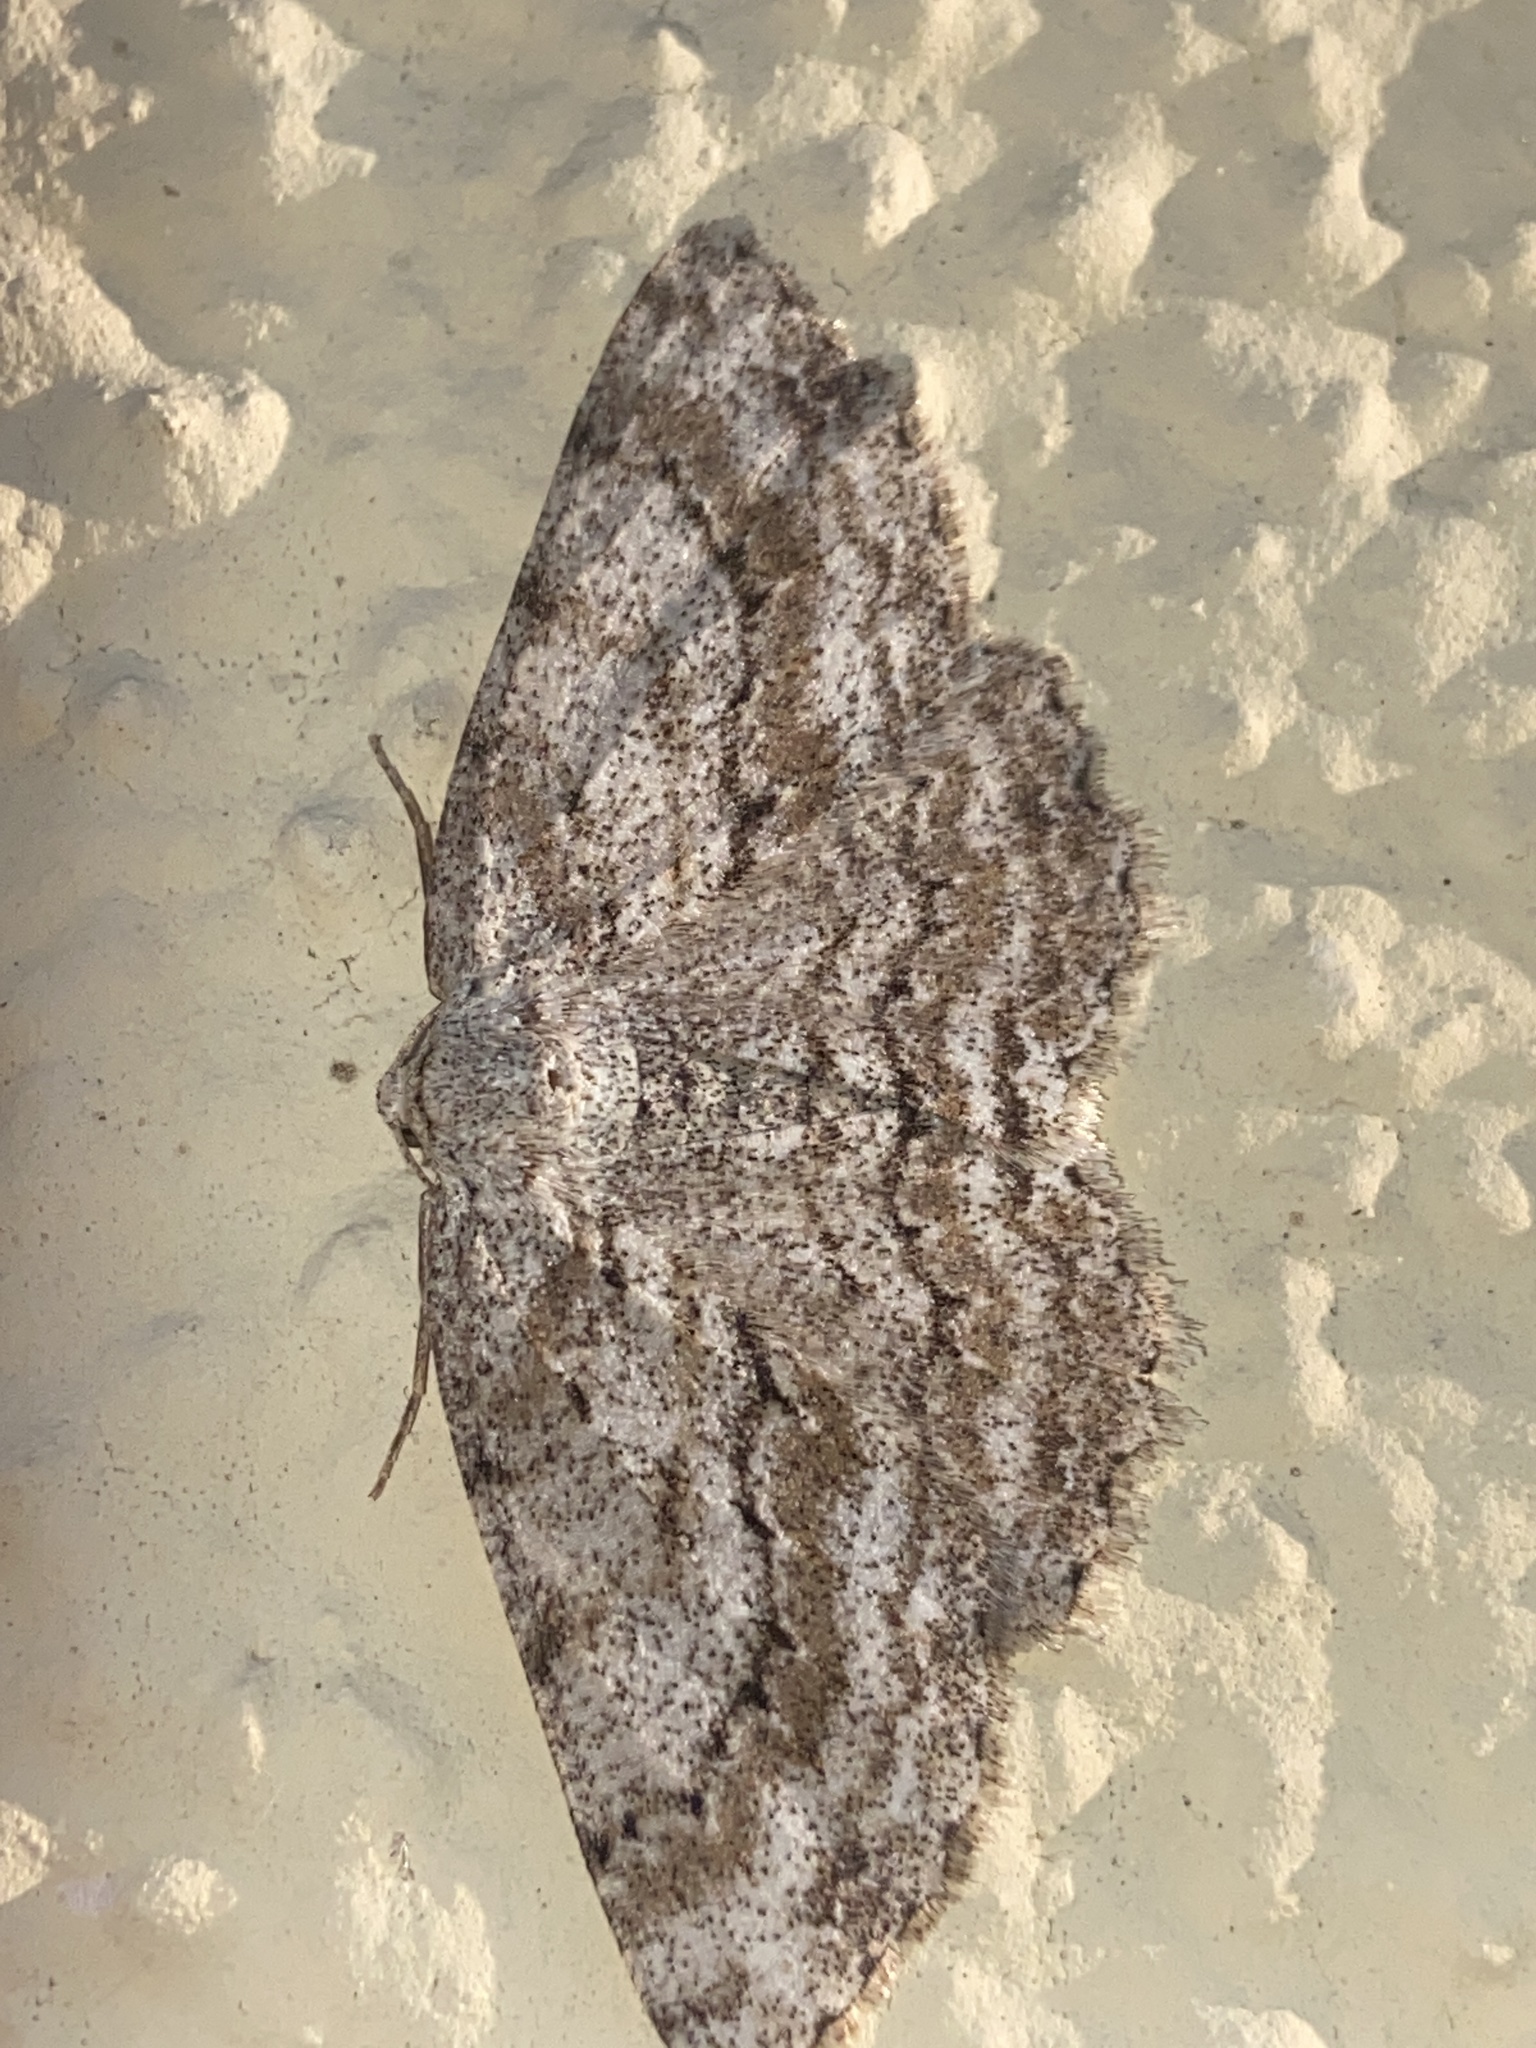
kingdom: Animalia
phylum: Arthropoda
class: Insecta
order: Lepidoptera
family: Geometridae
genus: Ectropis
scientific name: Ectropis crepuscularia
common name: Engrailed
